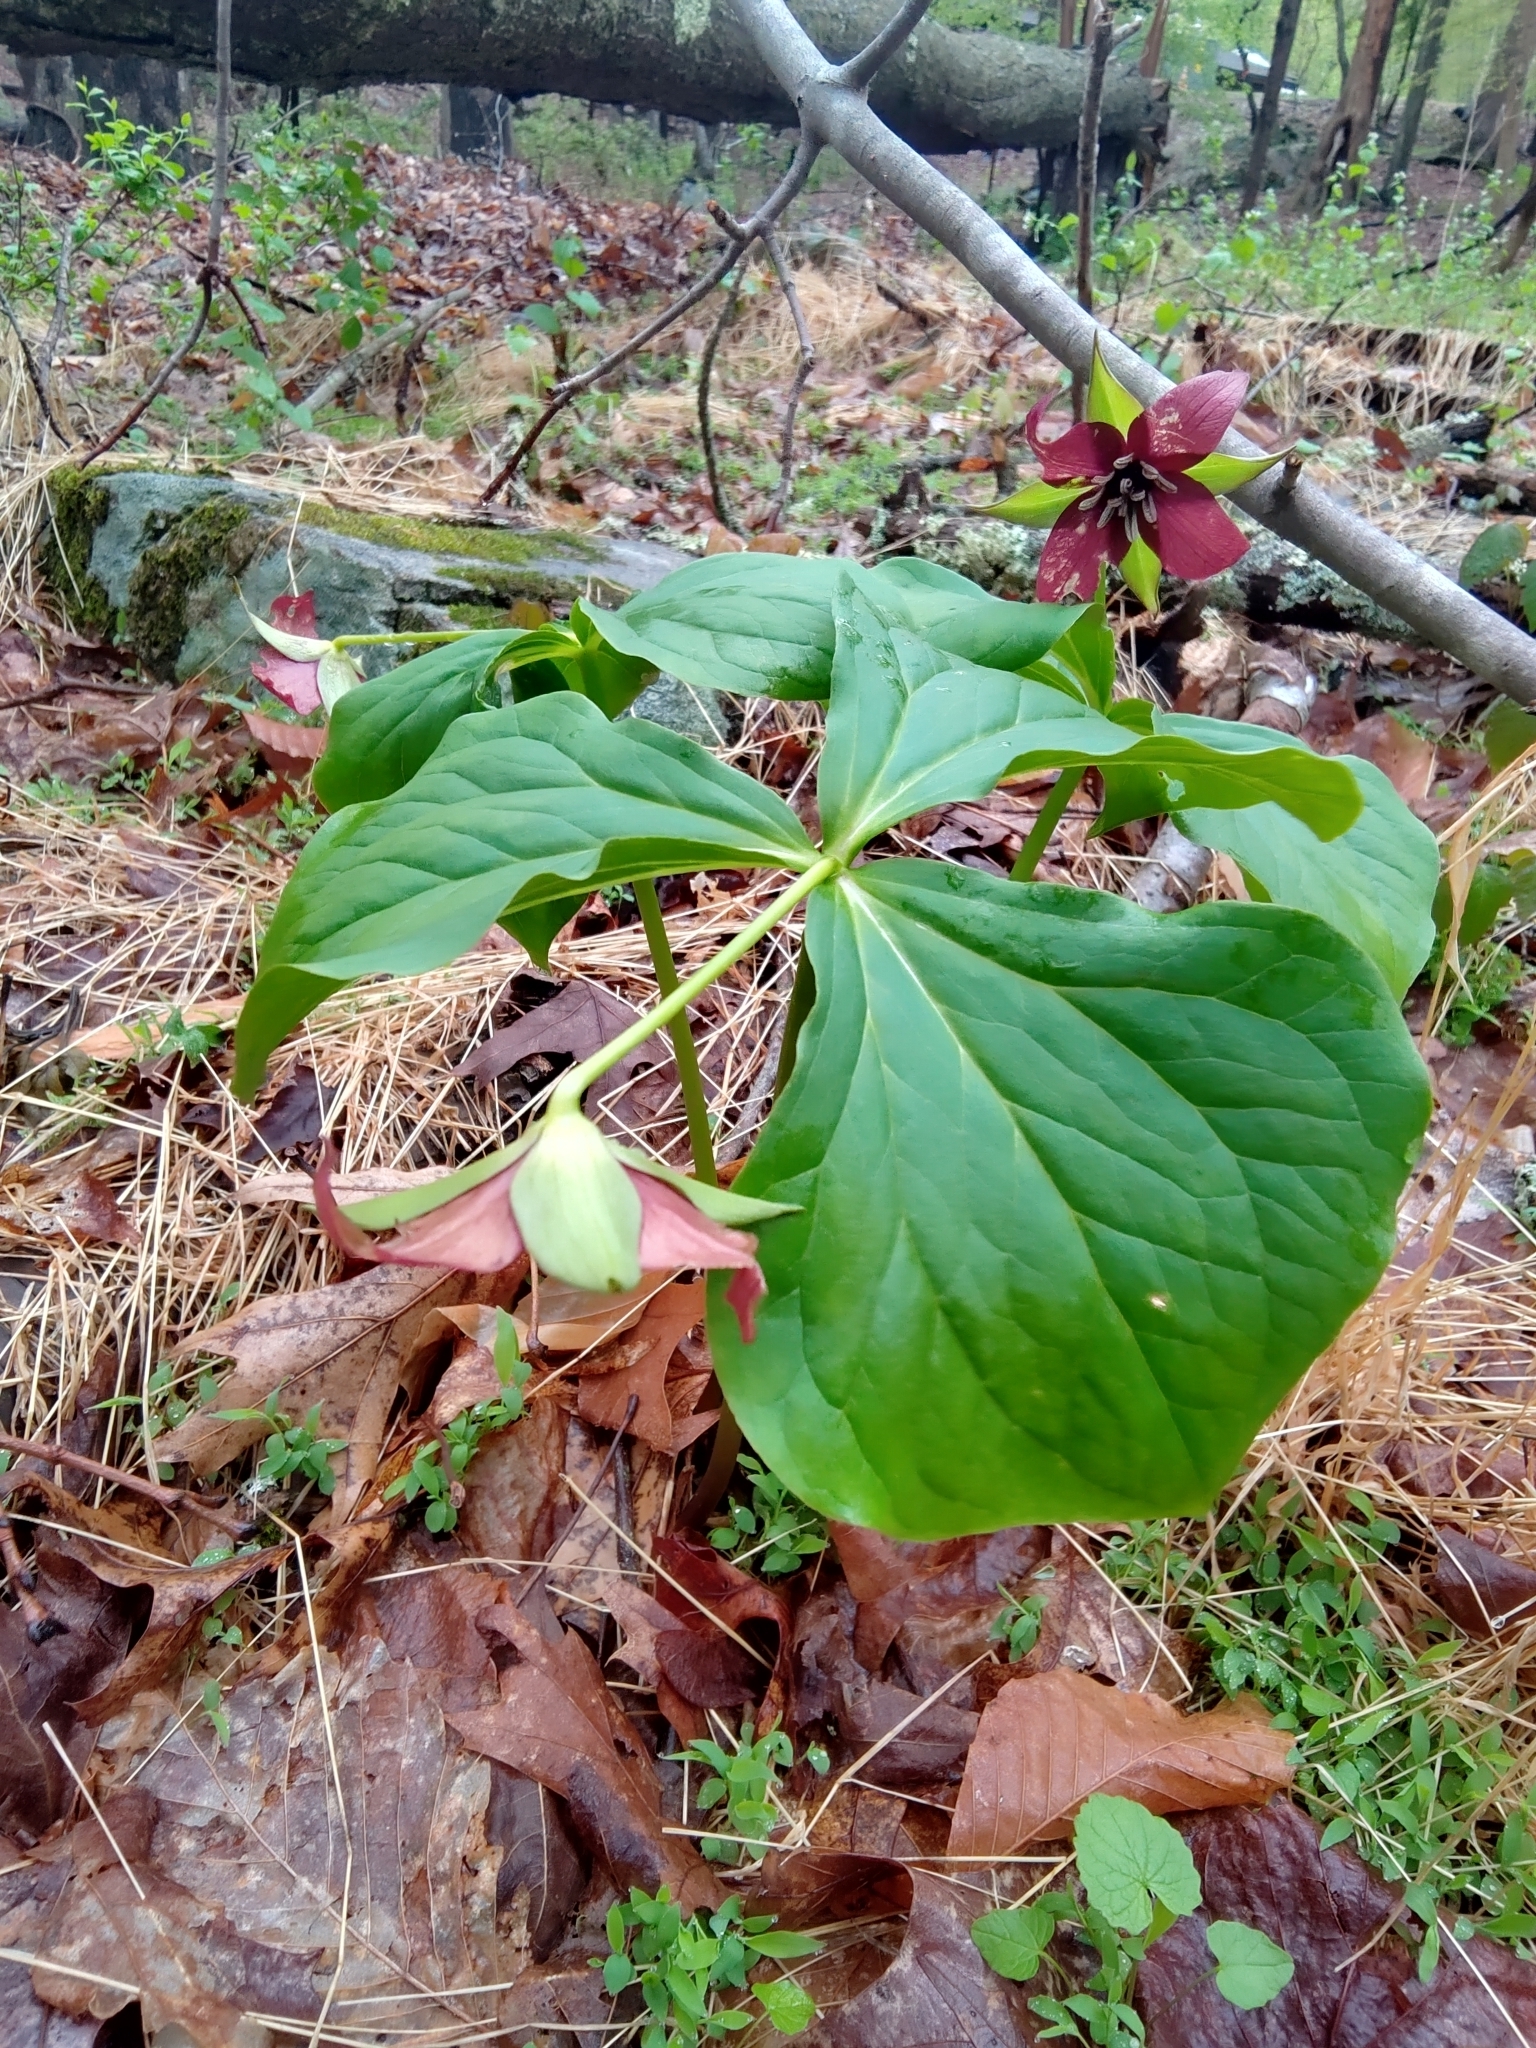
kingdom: Plantae
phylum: Tracheophyta
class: Liliopsida
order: Liliales
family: Melanthiaceae
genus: Trillium
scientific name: Trillium erectum
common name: Purple trillium
